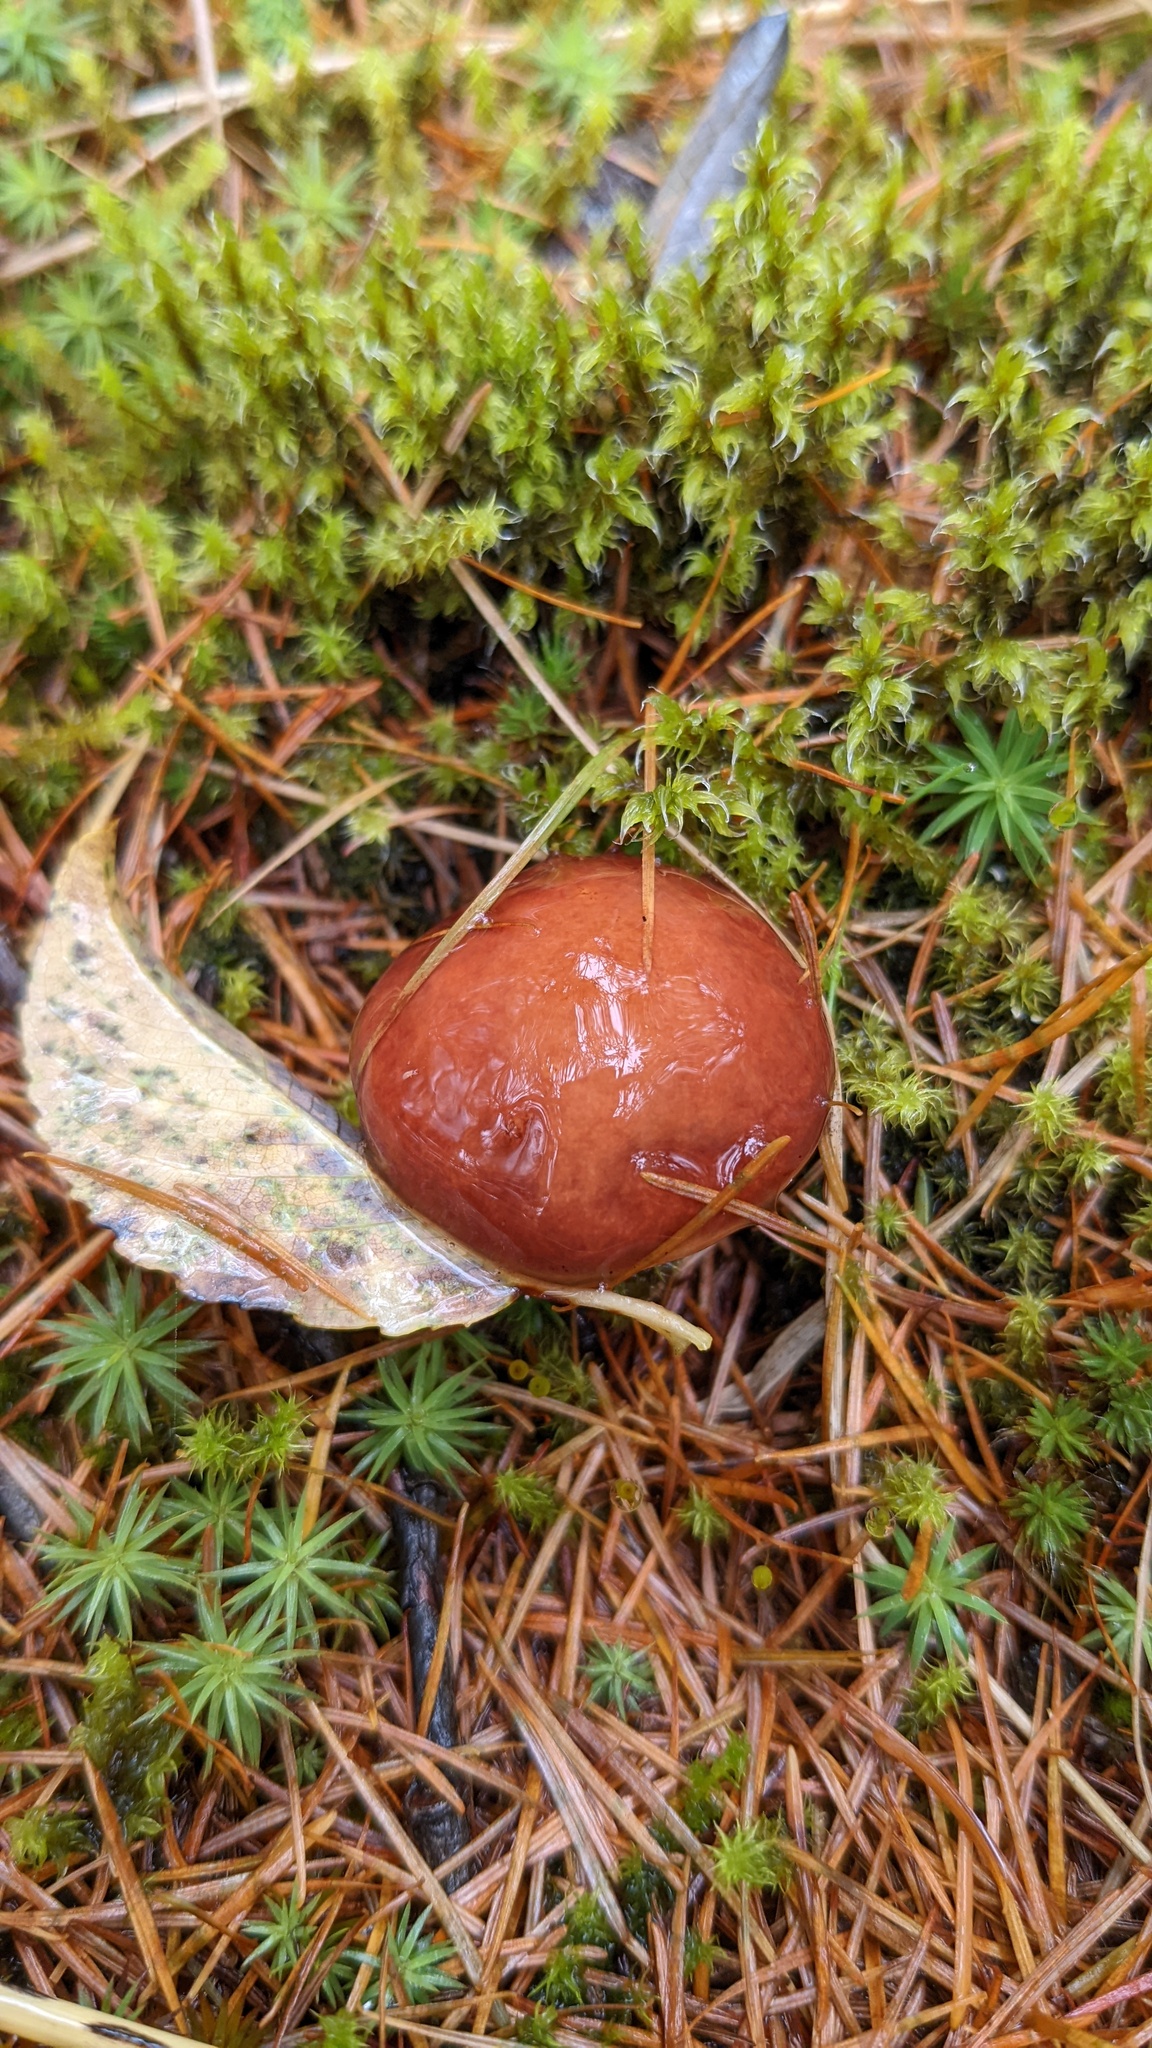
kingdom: Fungi
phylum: Basidiomycota
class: Agaricomycetes
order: Boletales
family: Suillaceae
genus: Suillus
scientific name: Suillus grevillei
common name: Larch bolete
